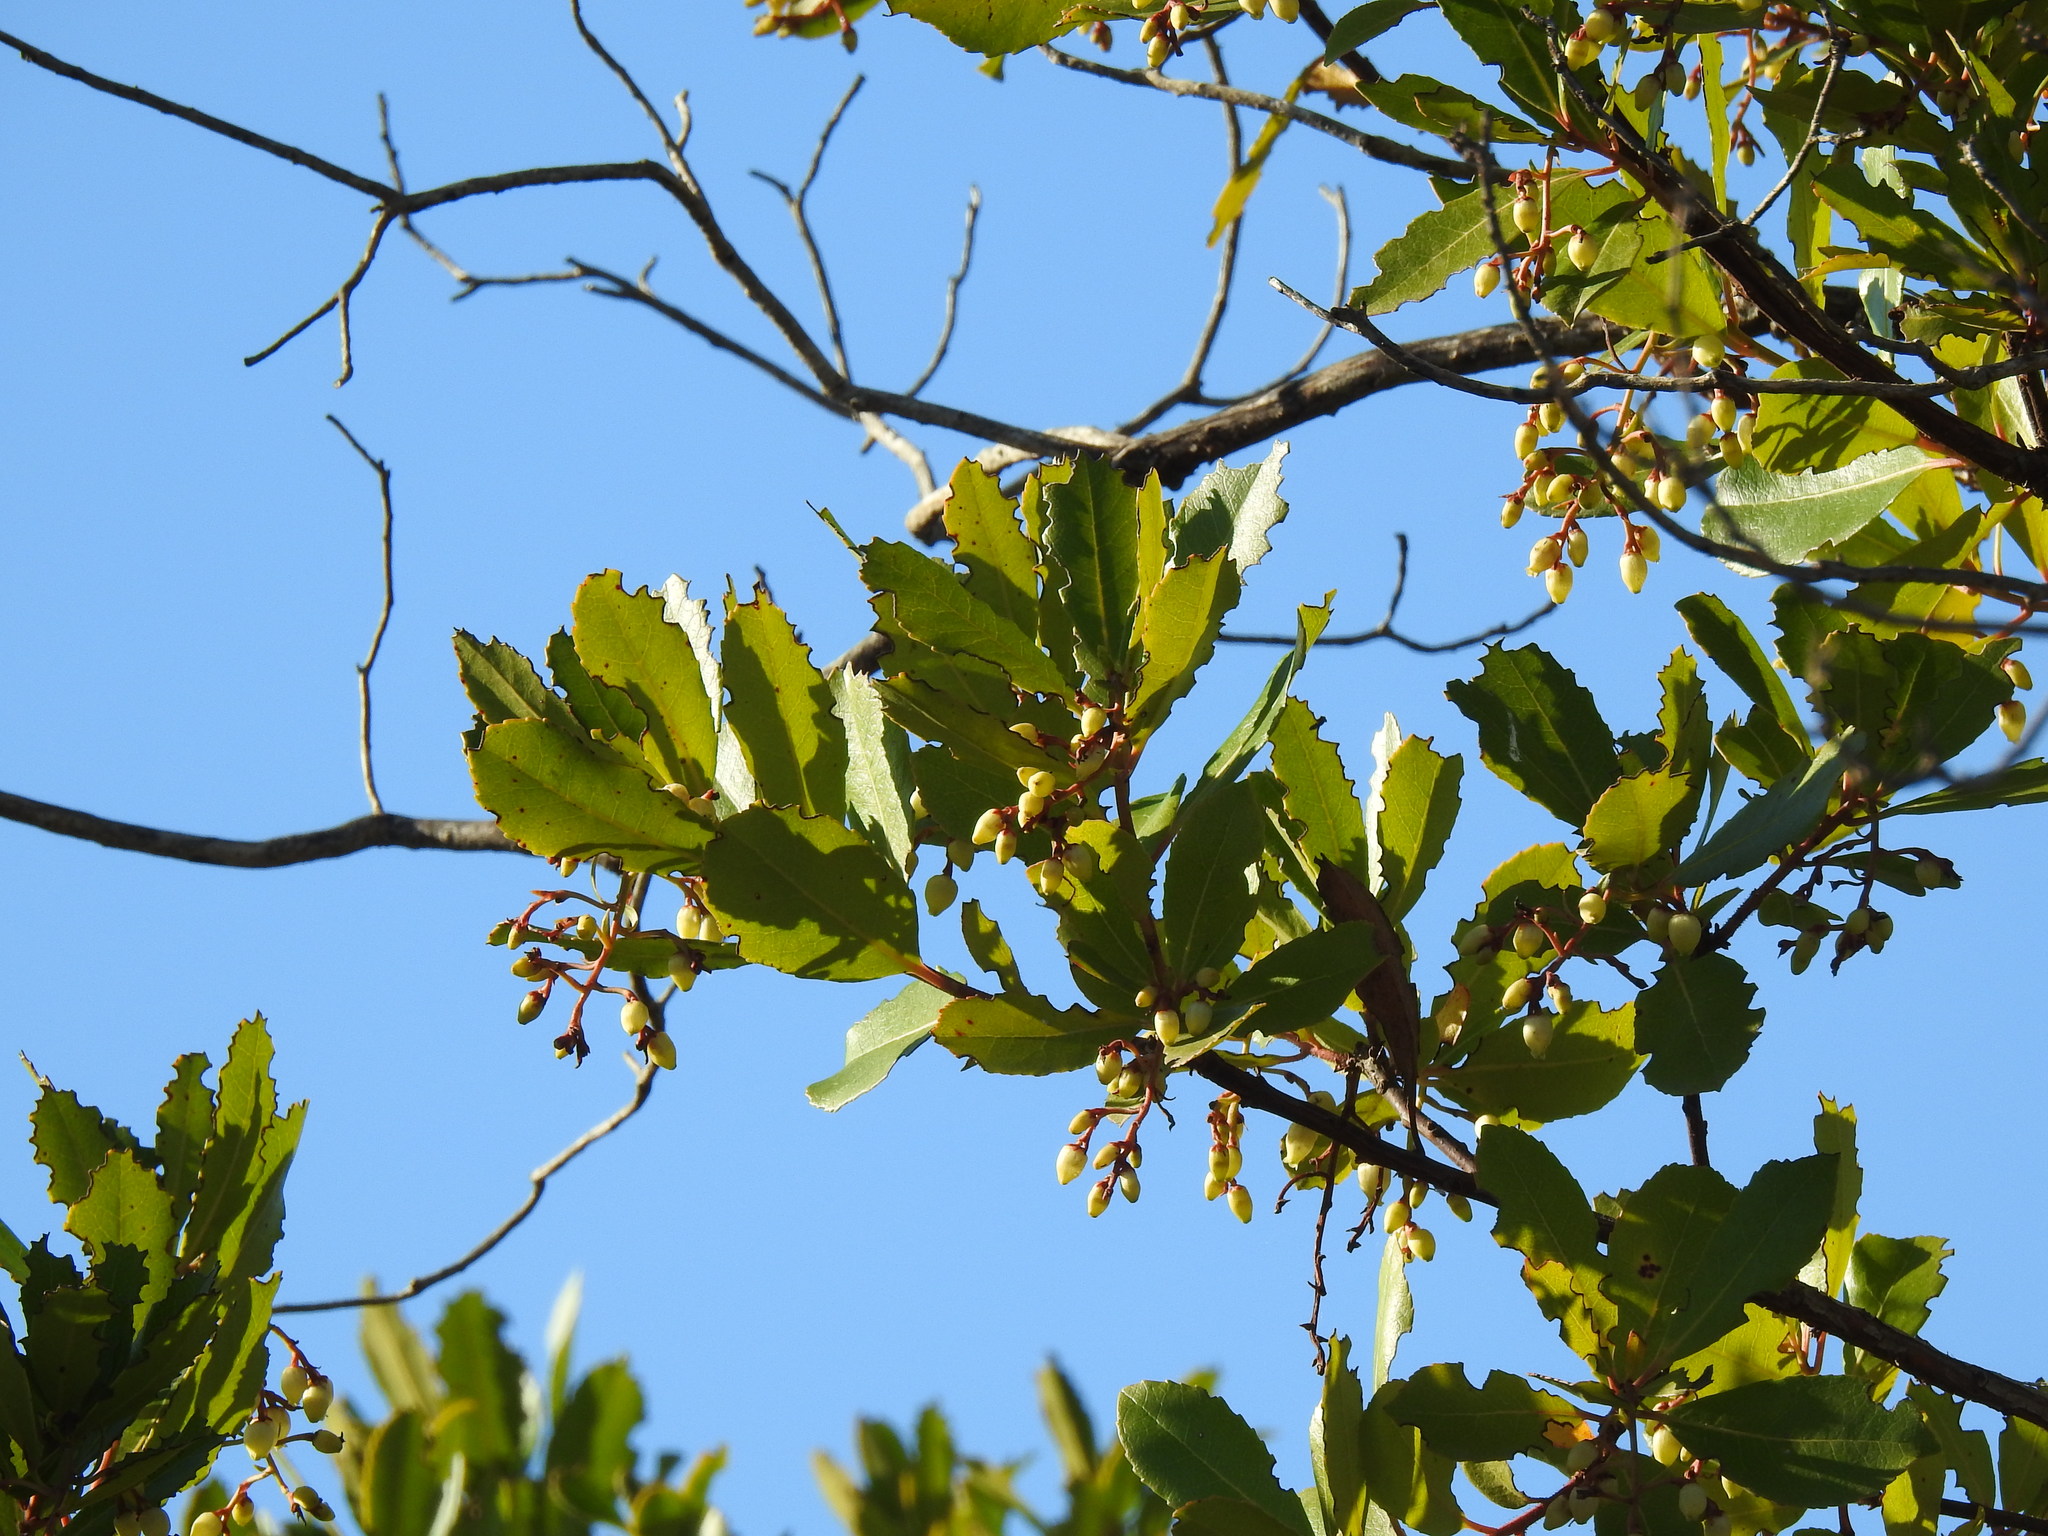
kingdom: Plantae
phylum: Tracheophyta
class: Magnoliopsida
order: Ericales
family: Ericaceae
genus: Arbutus
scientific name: Arbutus unedo
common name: Strawberry-tree
